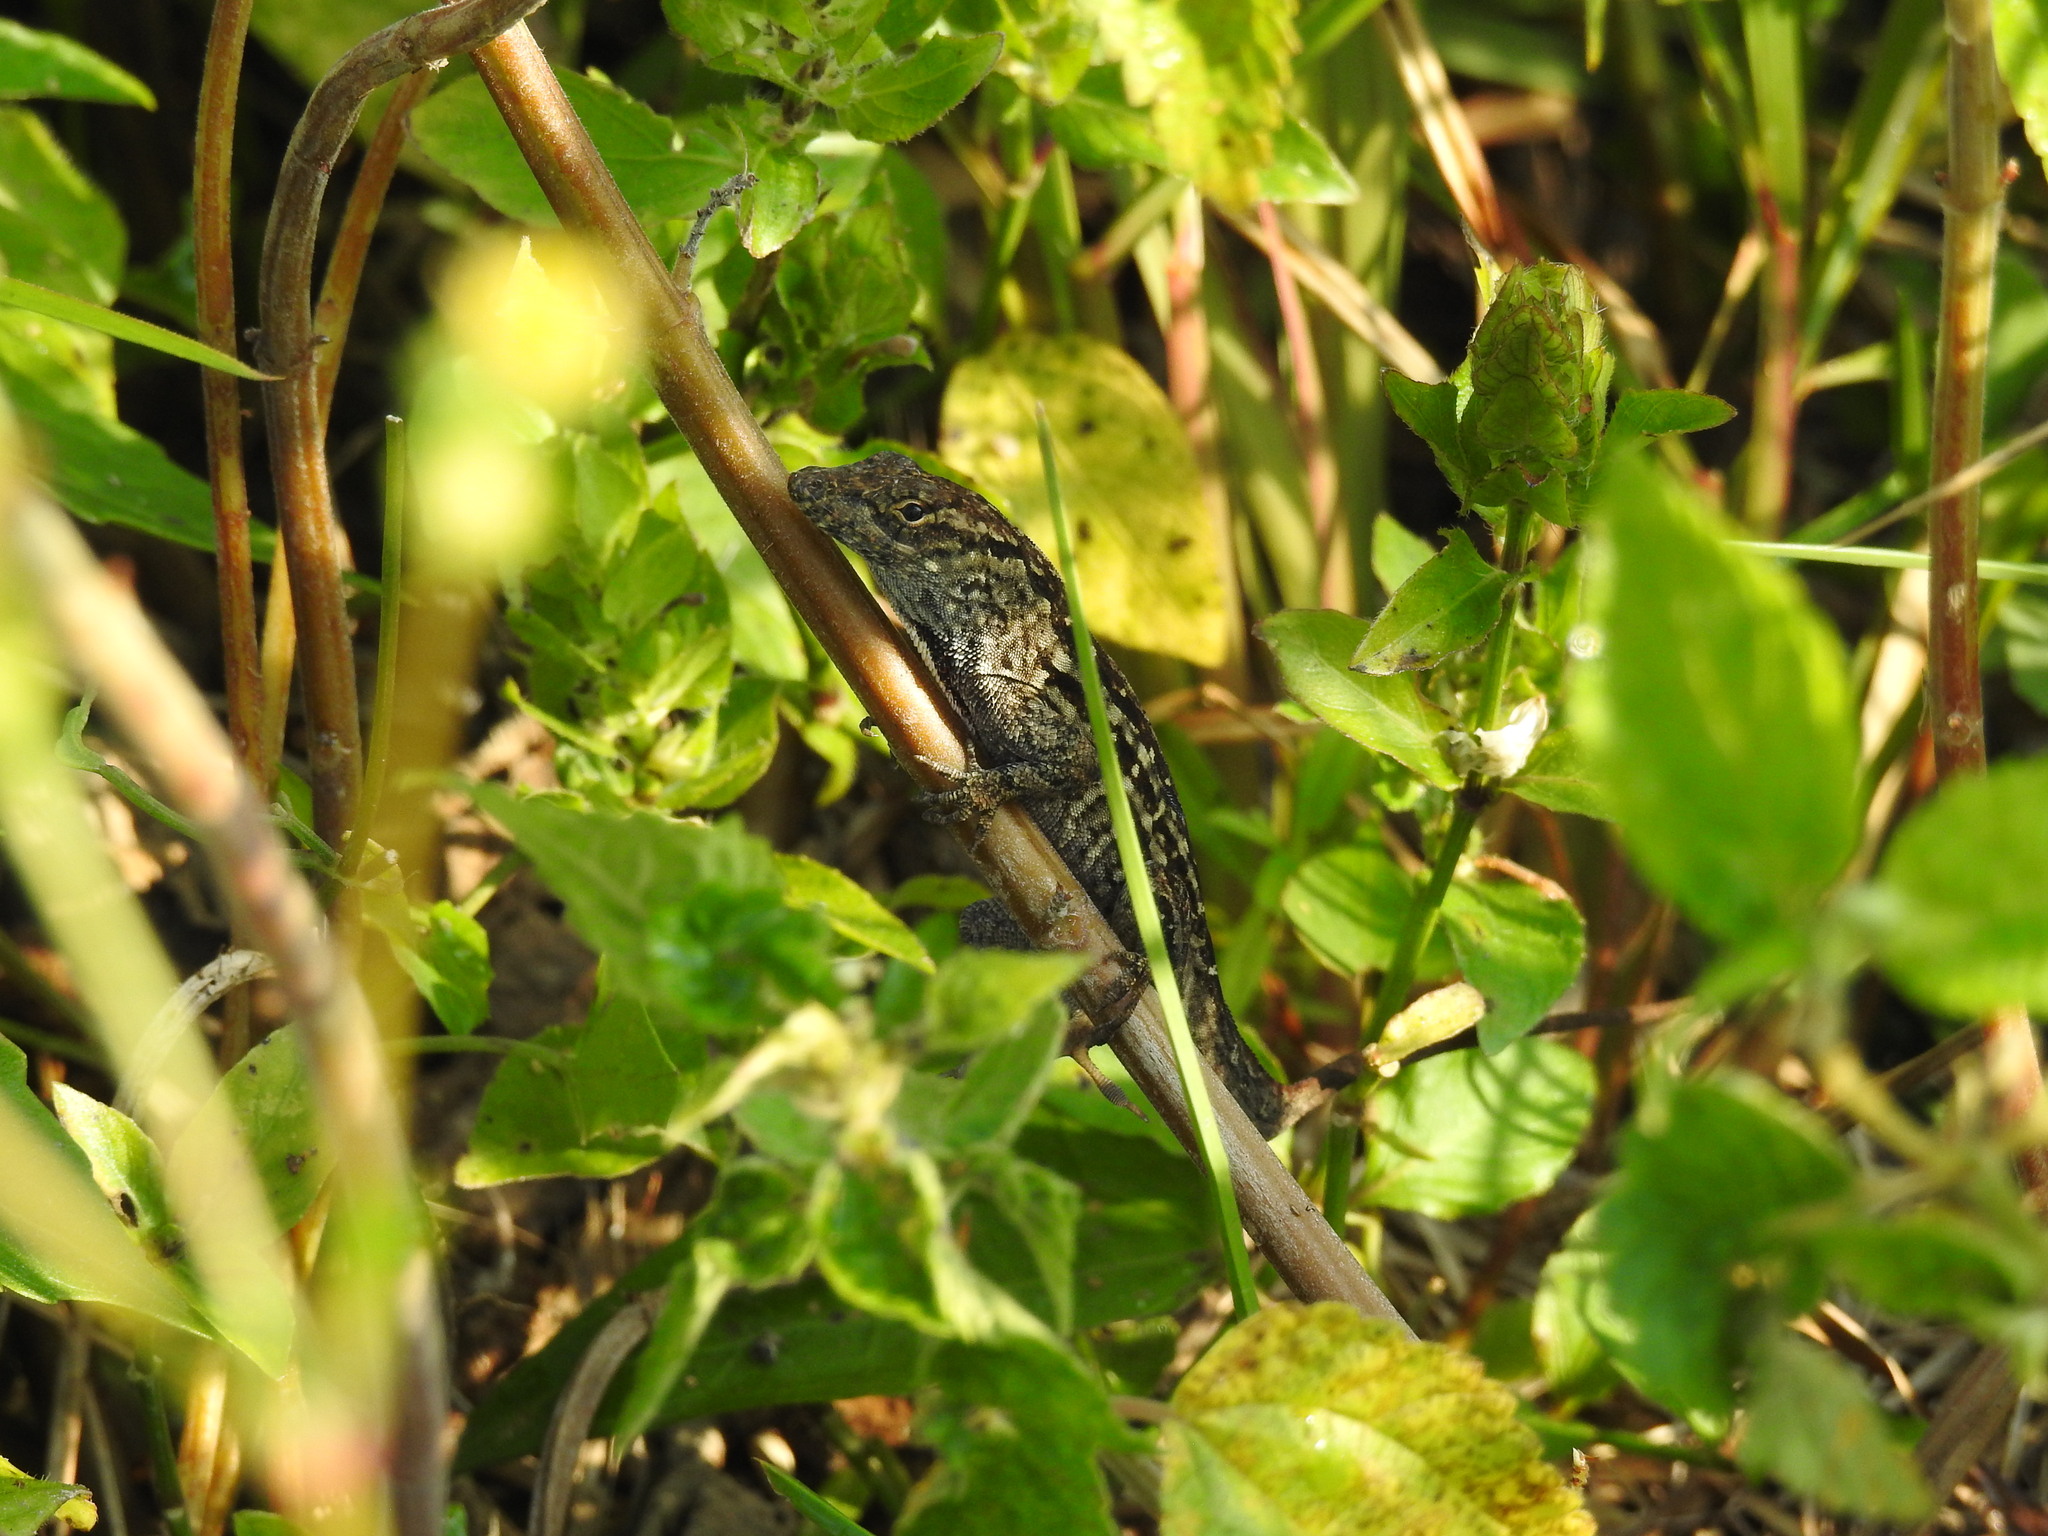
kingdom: Animalia
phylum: Chordata
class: Squamata
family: Dactyloidae
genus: Anolis
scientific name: Anolis sagrei
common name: Brown anole
